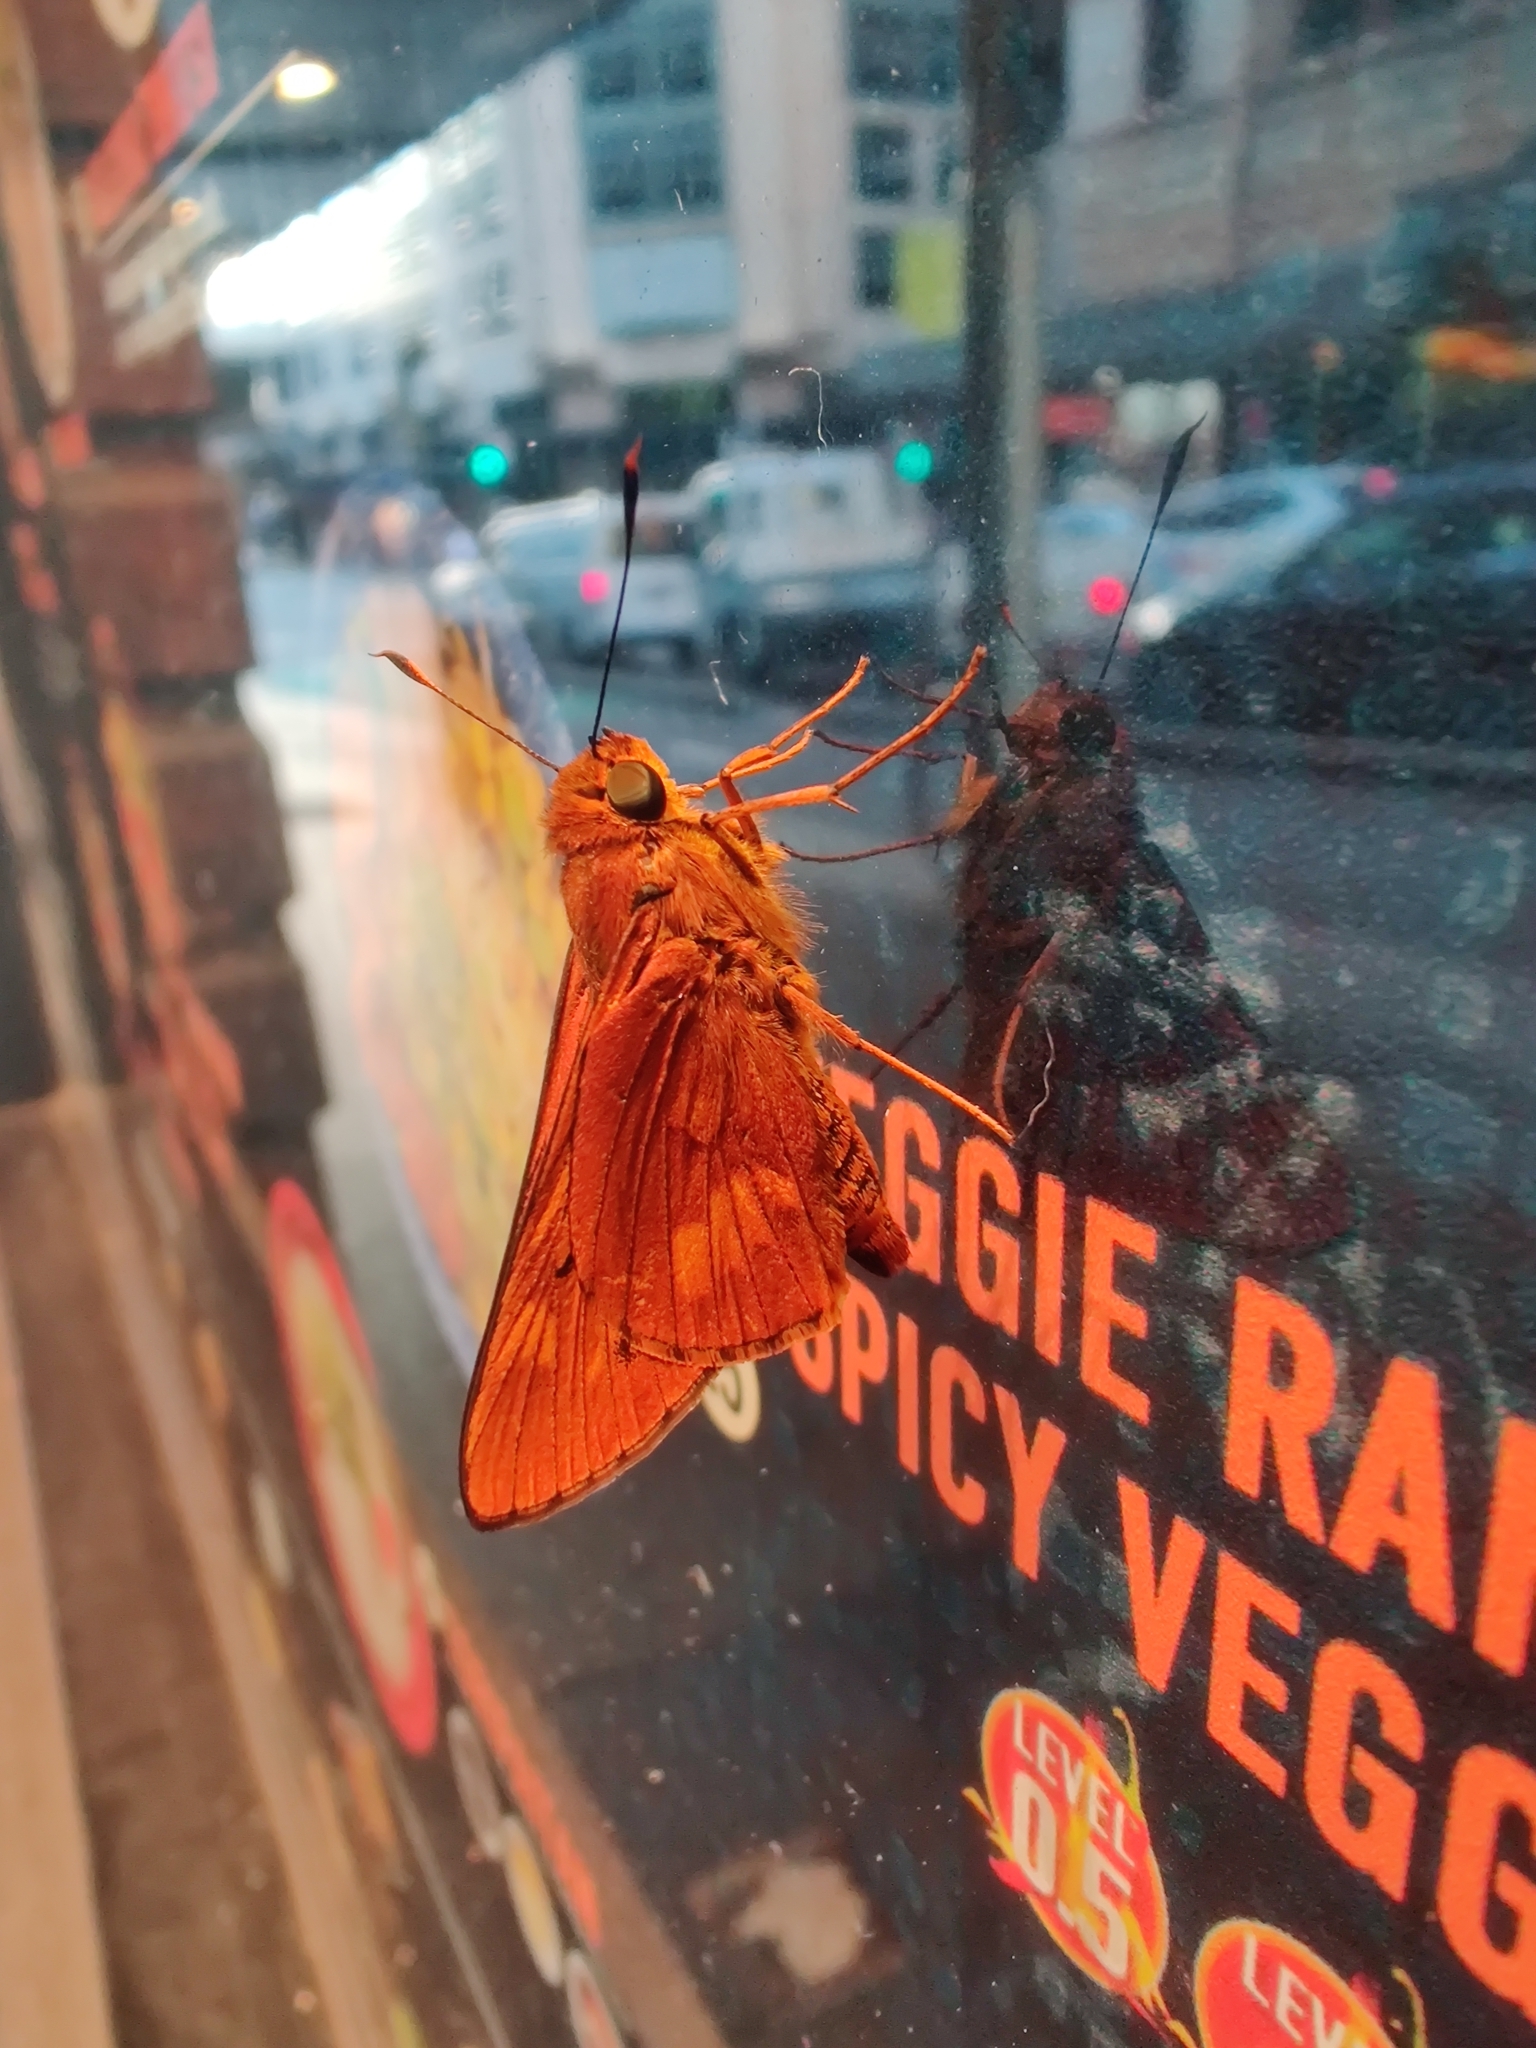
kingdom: Animalia
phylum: Arthropoda
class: Insecta
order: Lepidoptera
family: Hesperiidae
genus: Cephrenes
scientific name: Cephrenes augiades
